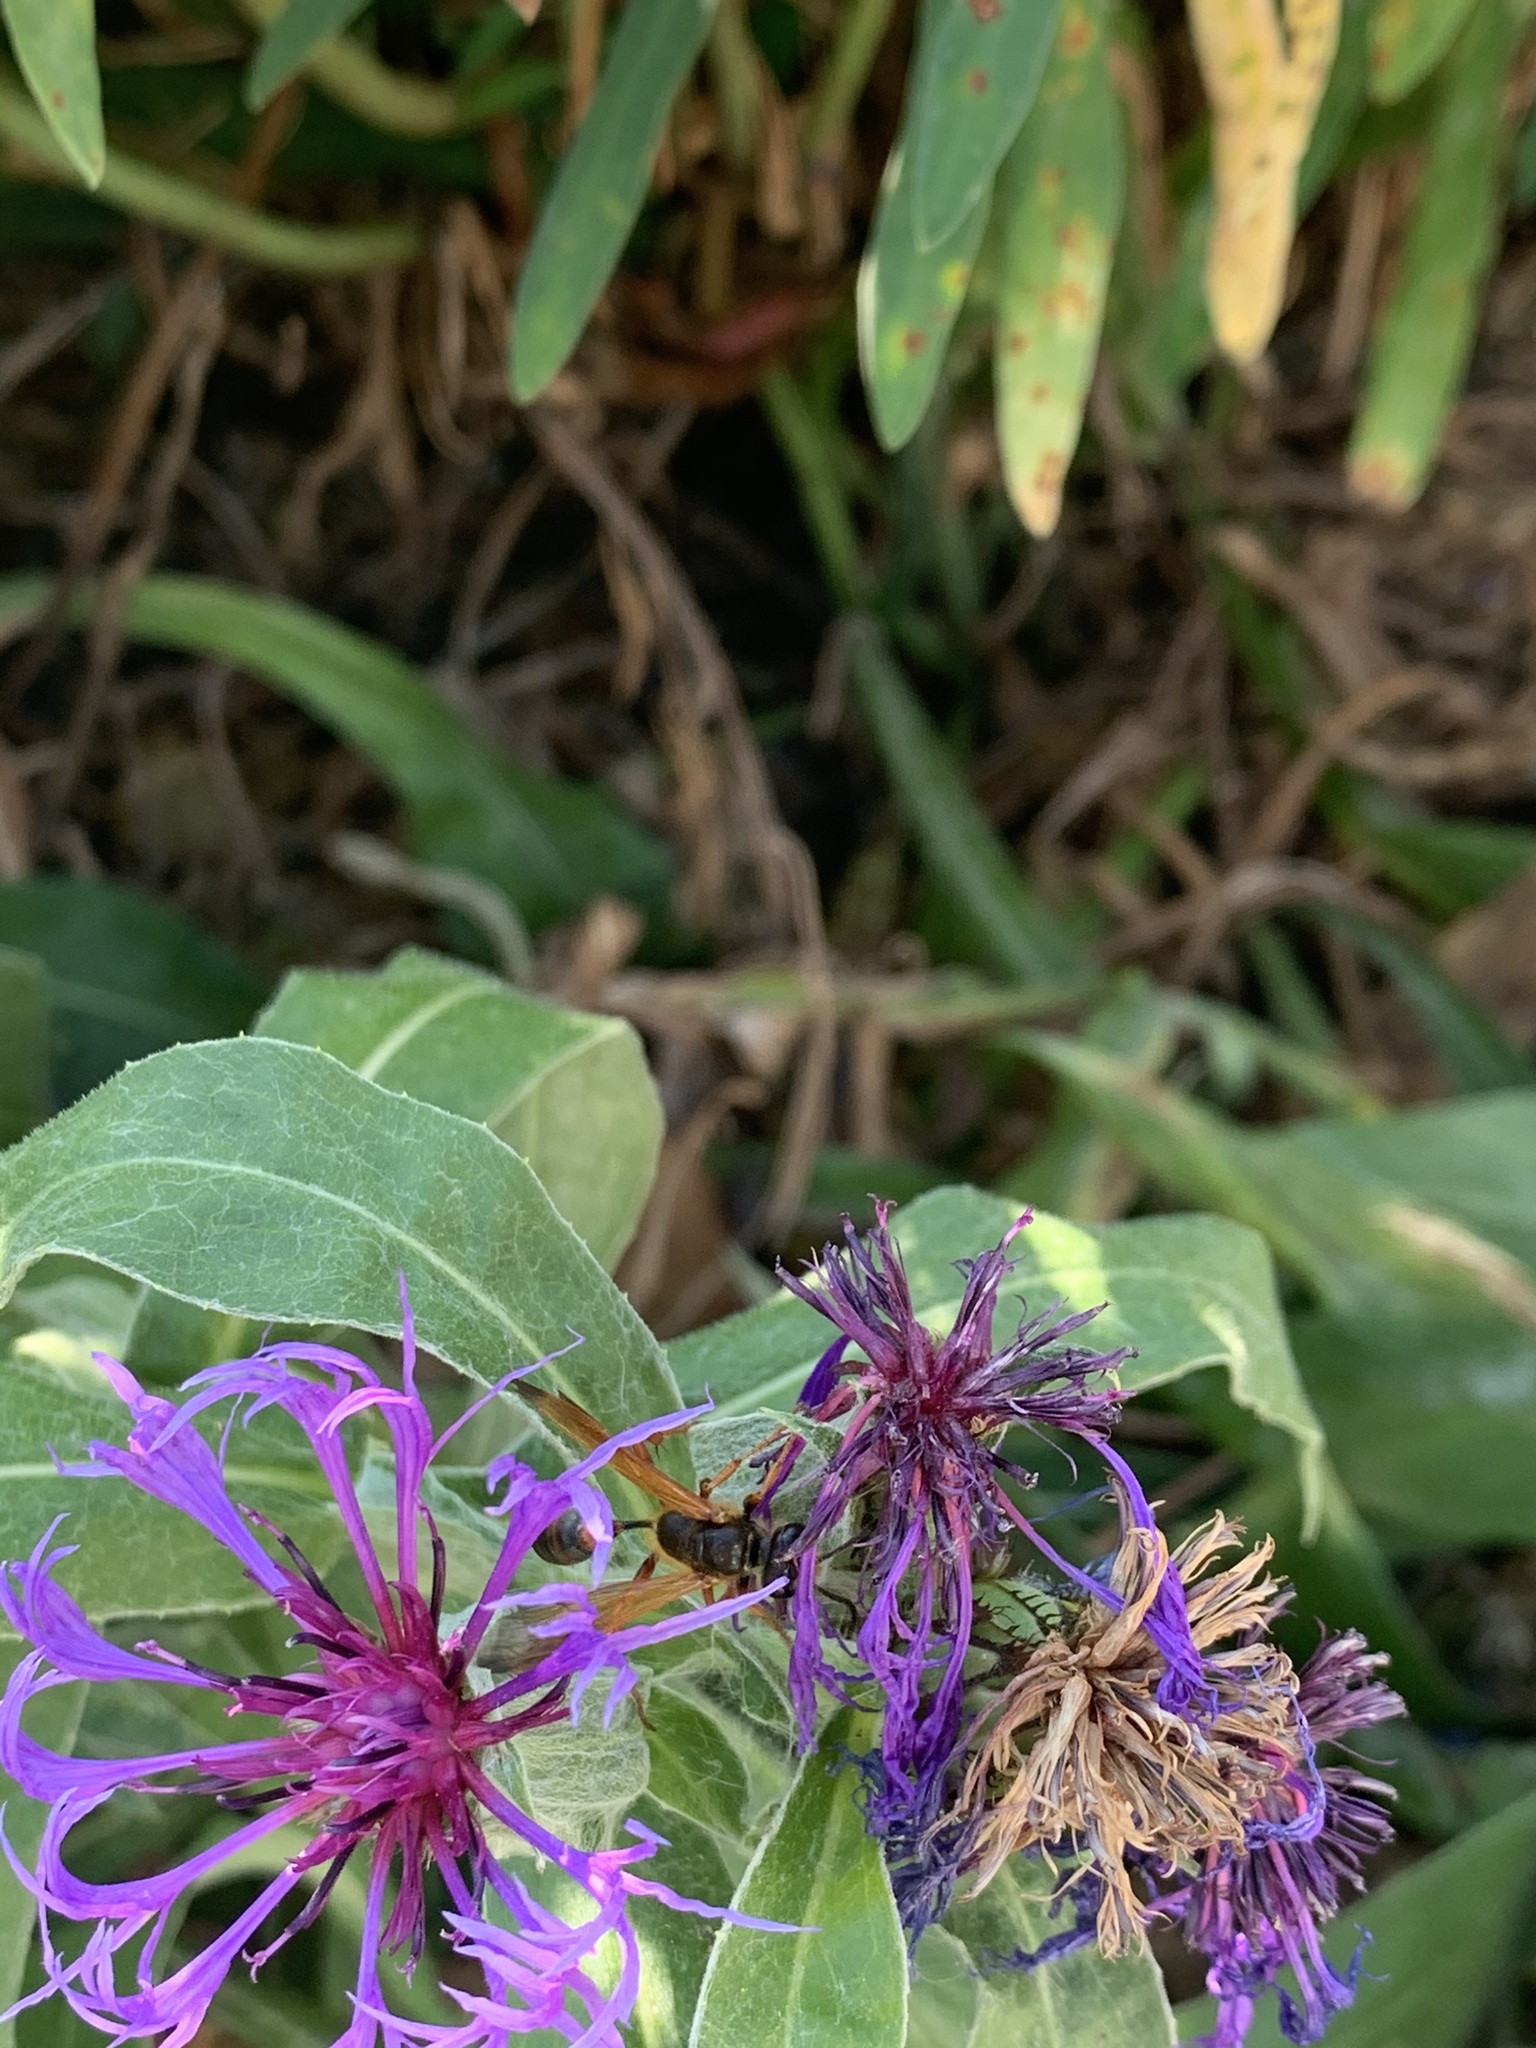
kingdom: Animalia
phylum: Arthropoda
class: Insecta
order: Hymenoptera
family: Sphecidae
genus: Isodontia
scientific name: Isodontia elegans
